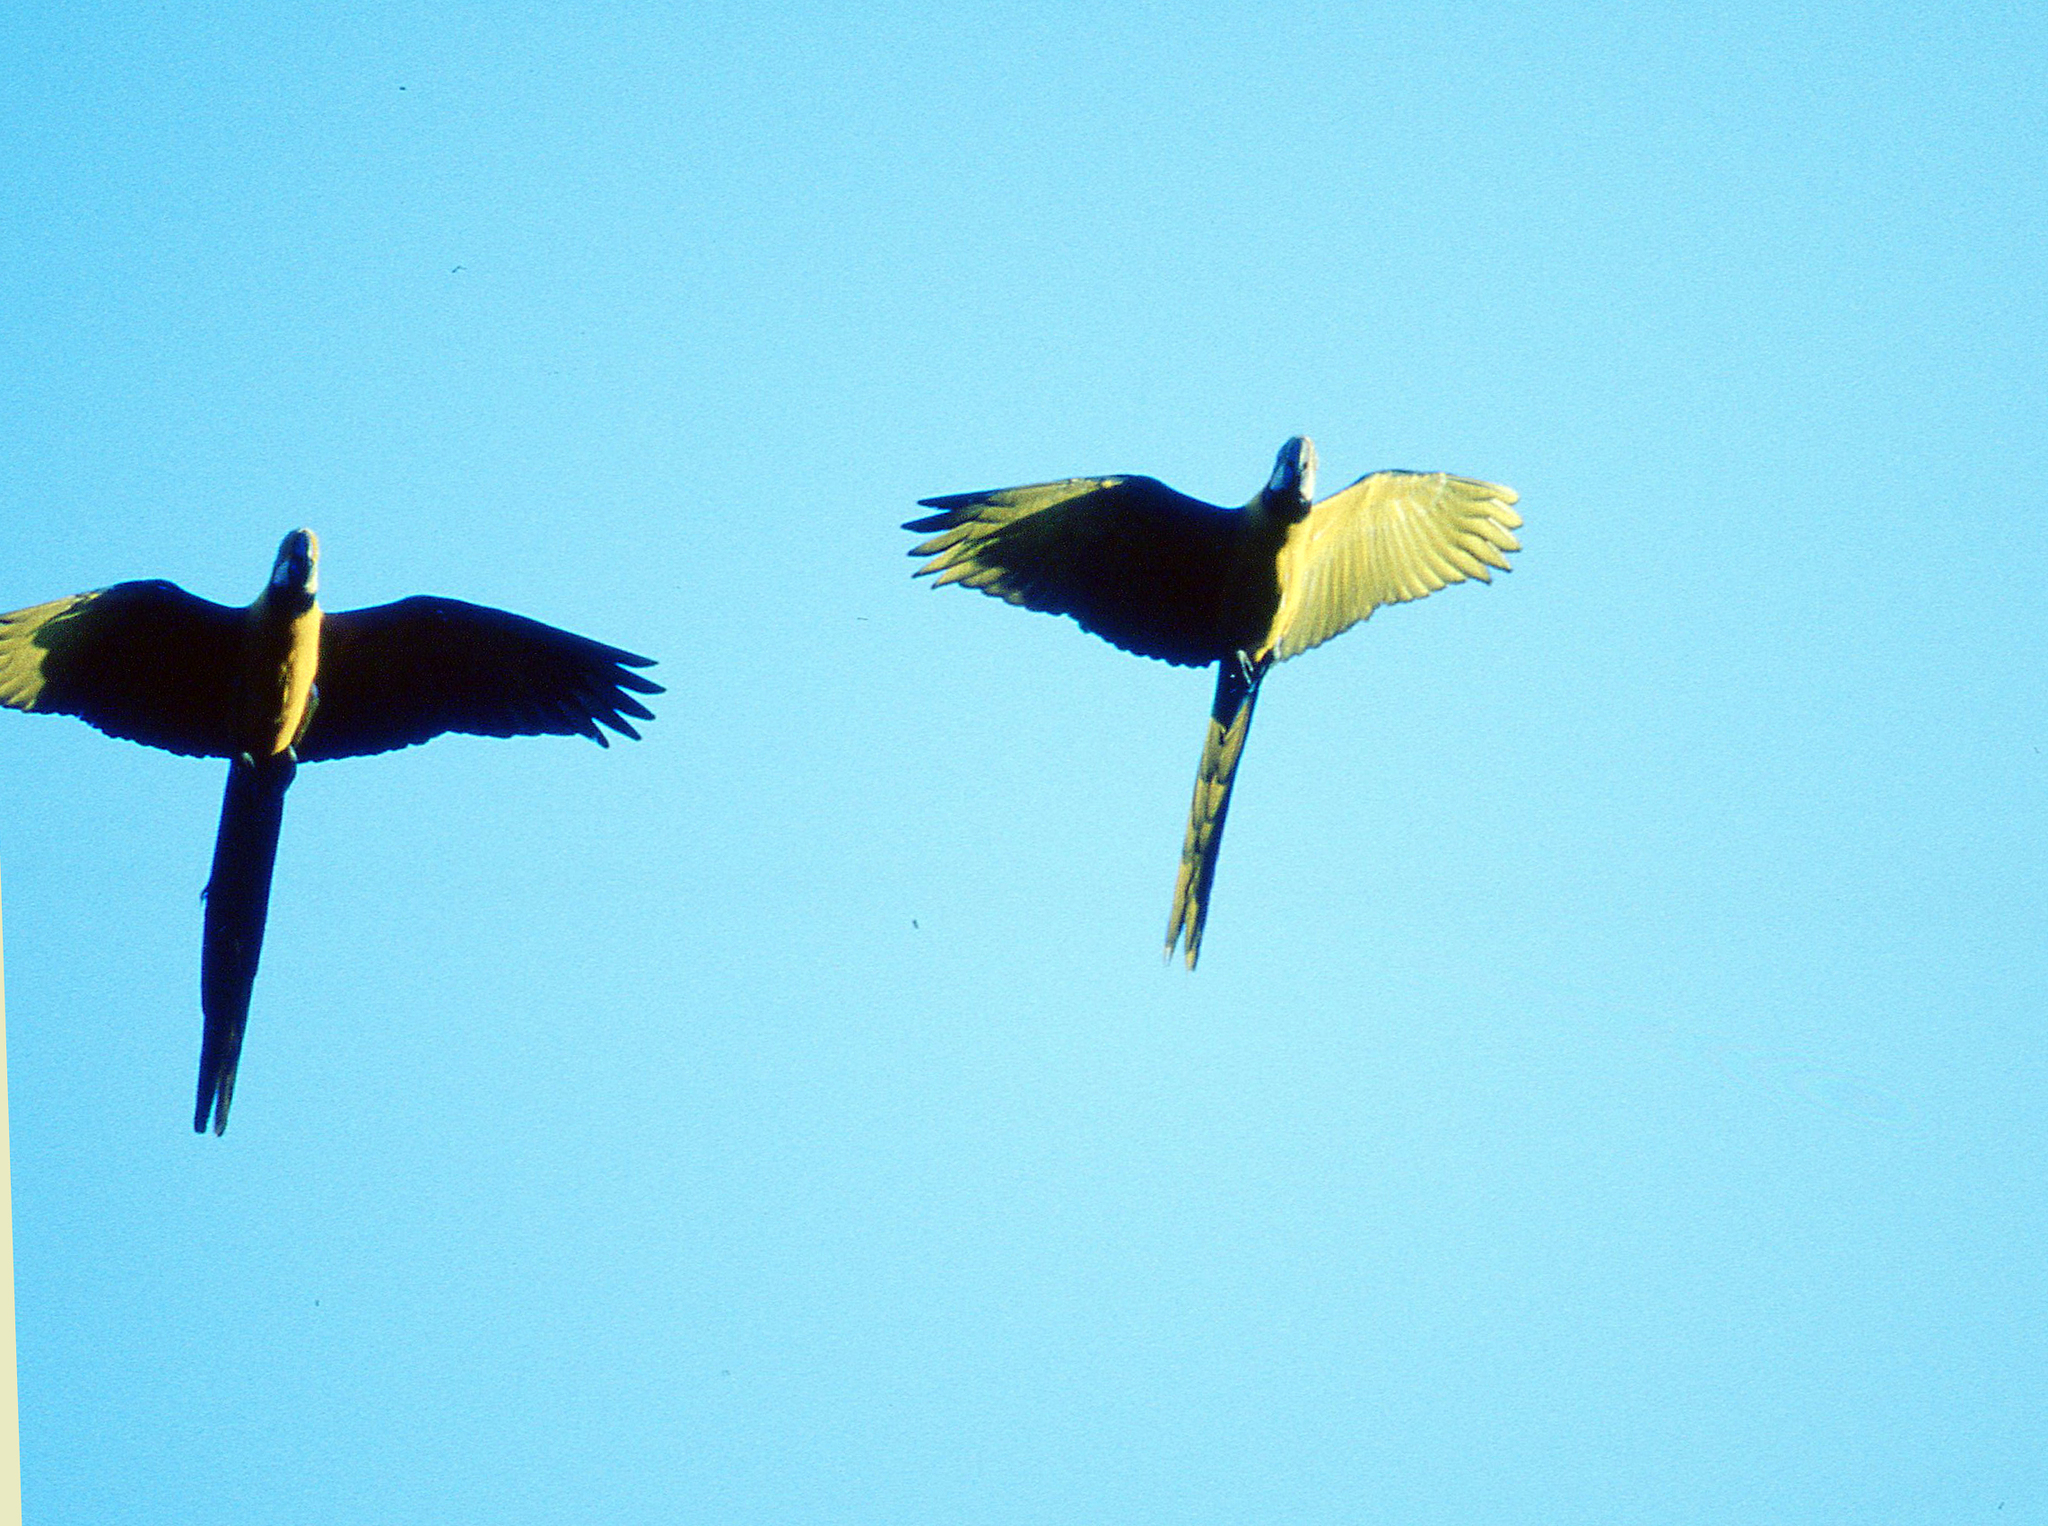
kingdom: Animalia
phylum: Chordata
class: Aves
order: Psittaciformes
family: Psittacidae
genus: Ara
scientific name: Ara ararauna
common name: Blue-and-yellow macaw
